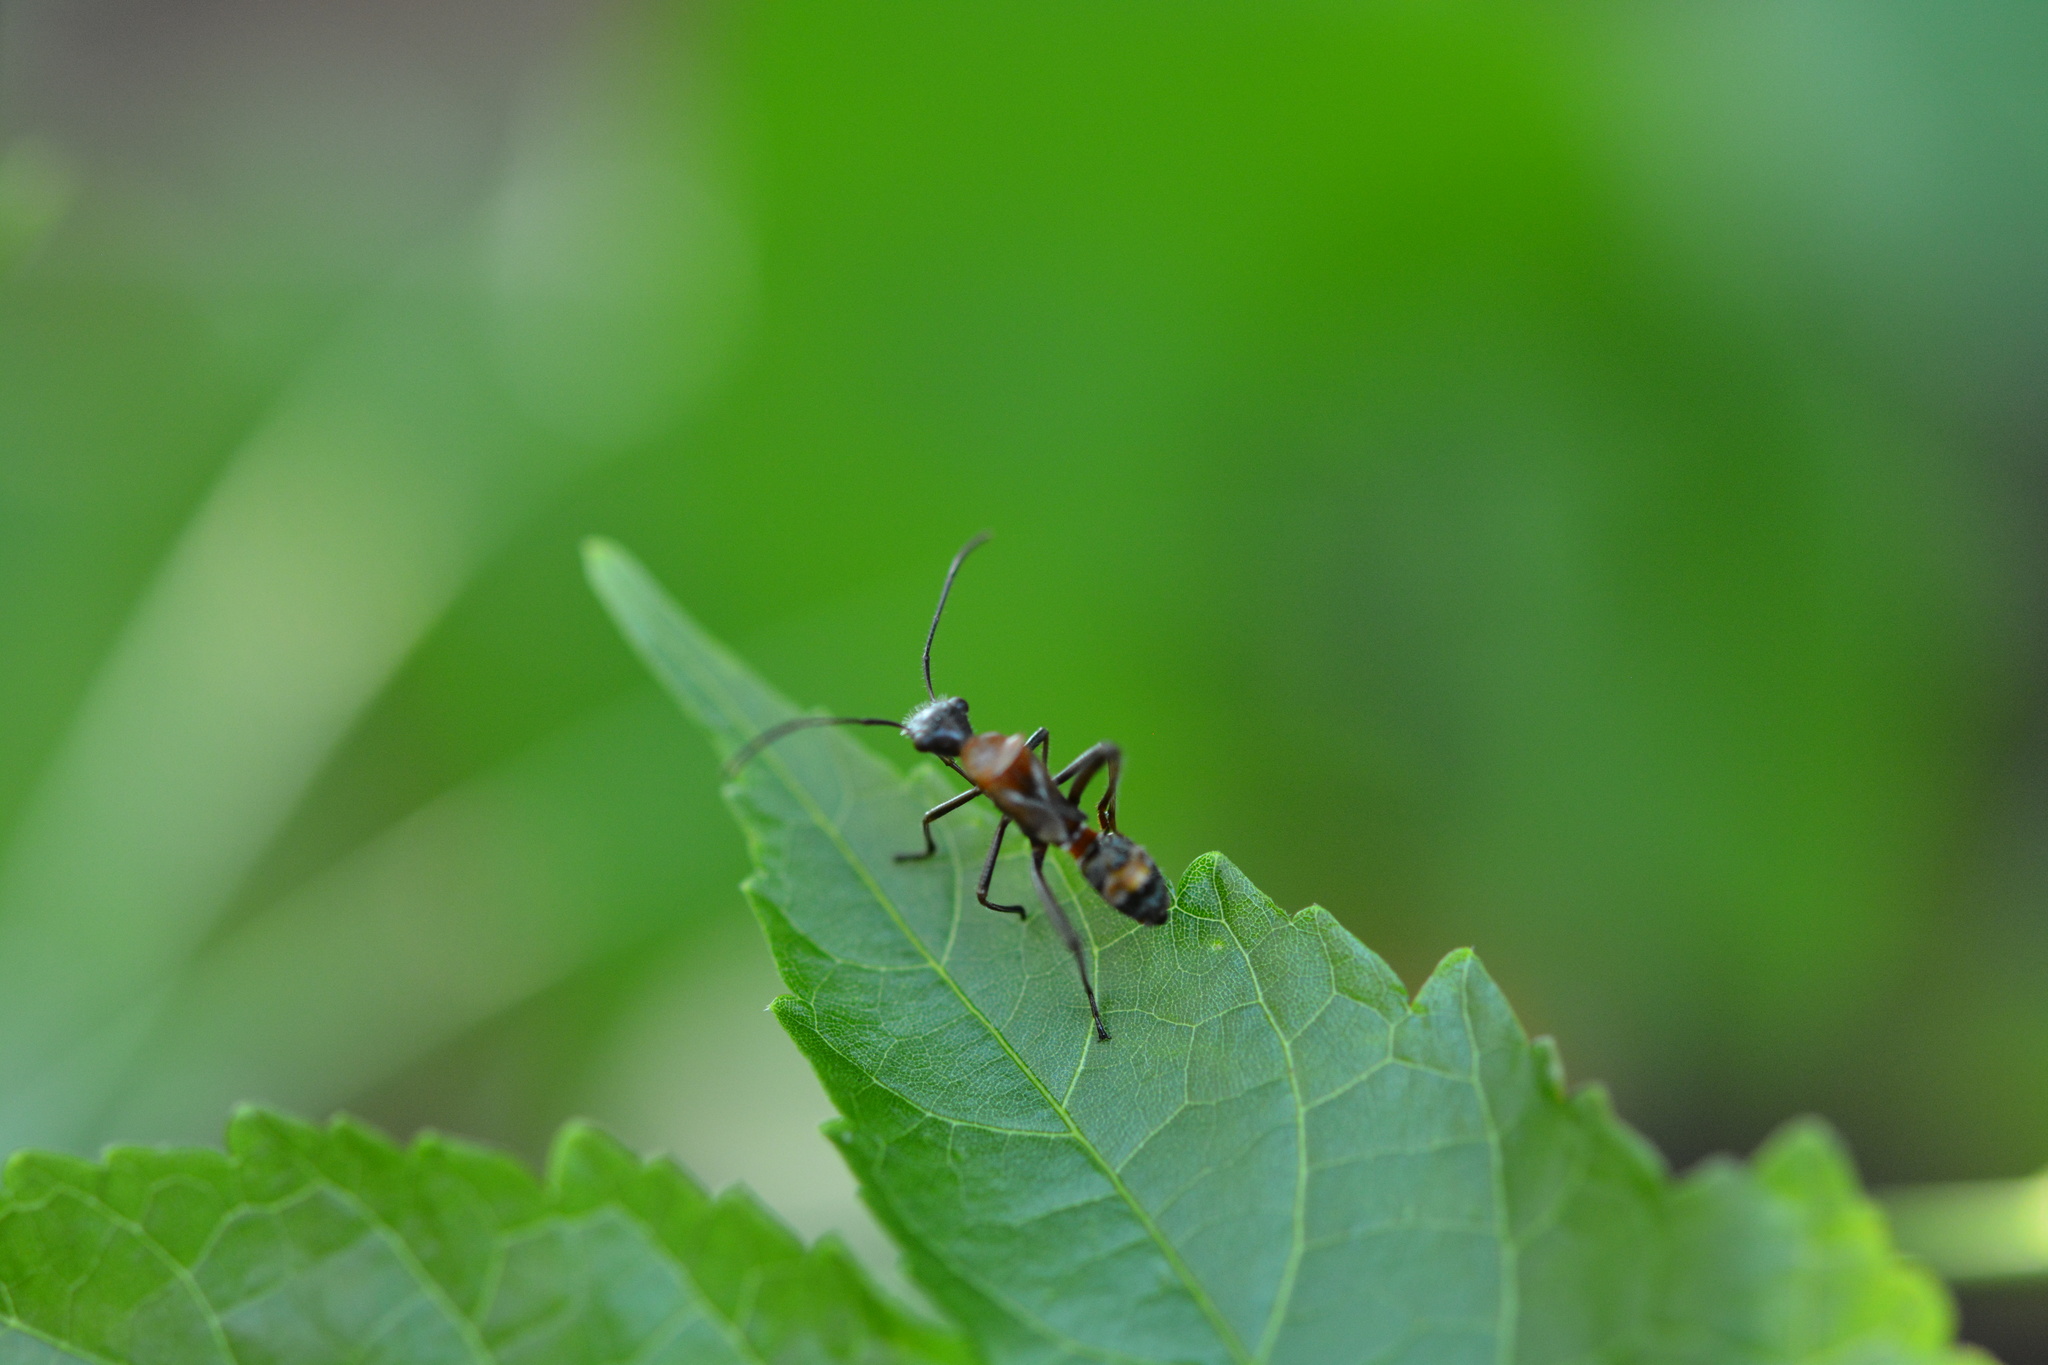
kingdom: Animalia
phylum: Arthropoda
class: Insecta
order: Hemiptera
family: Alydidae
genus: Hyalymenus
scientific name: Hyalymenus tarsatus
